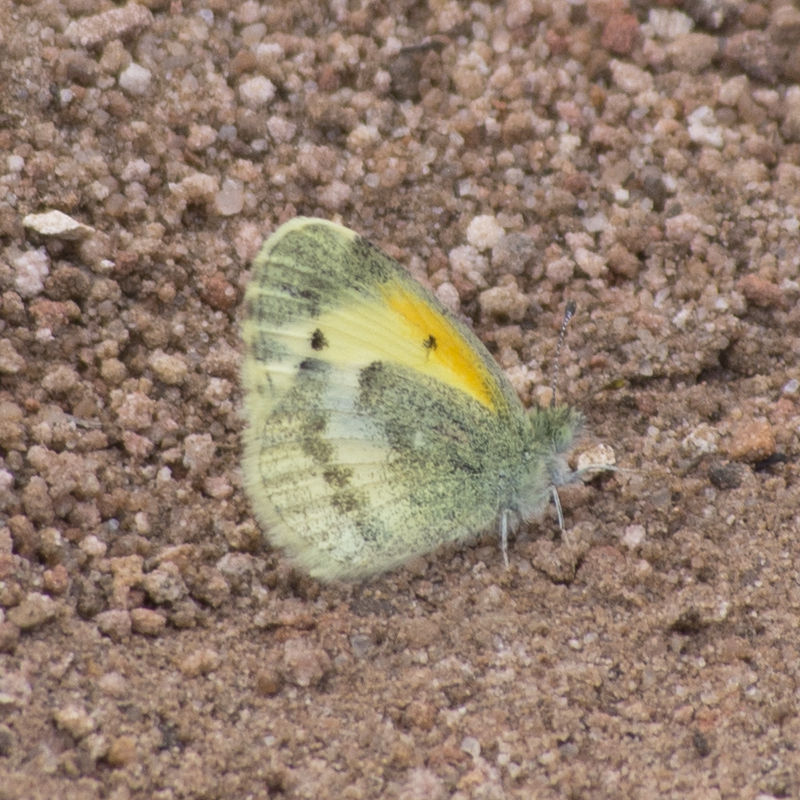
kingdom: Animalia
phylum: Arthropoda
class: Insecta
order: Lepidoptera
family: Pieridae
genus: Nathalis
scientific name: Nathalis iole
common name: Dainty sulphur
